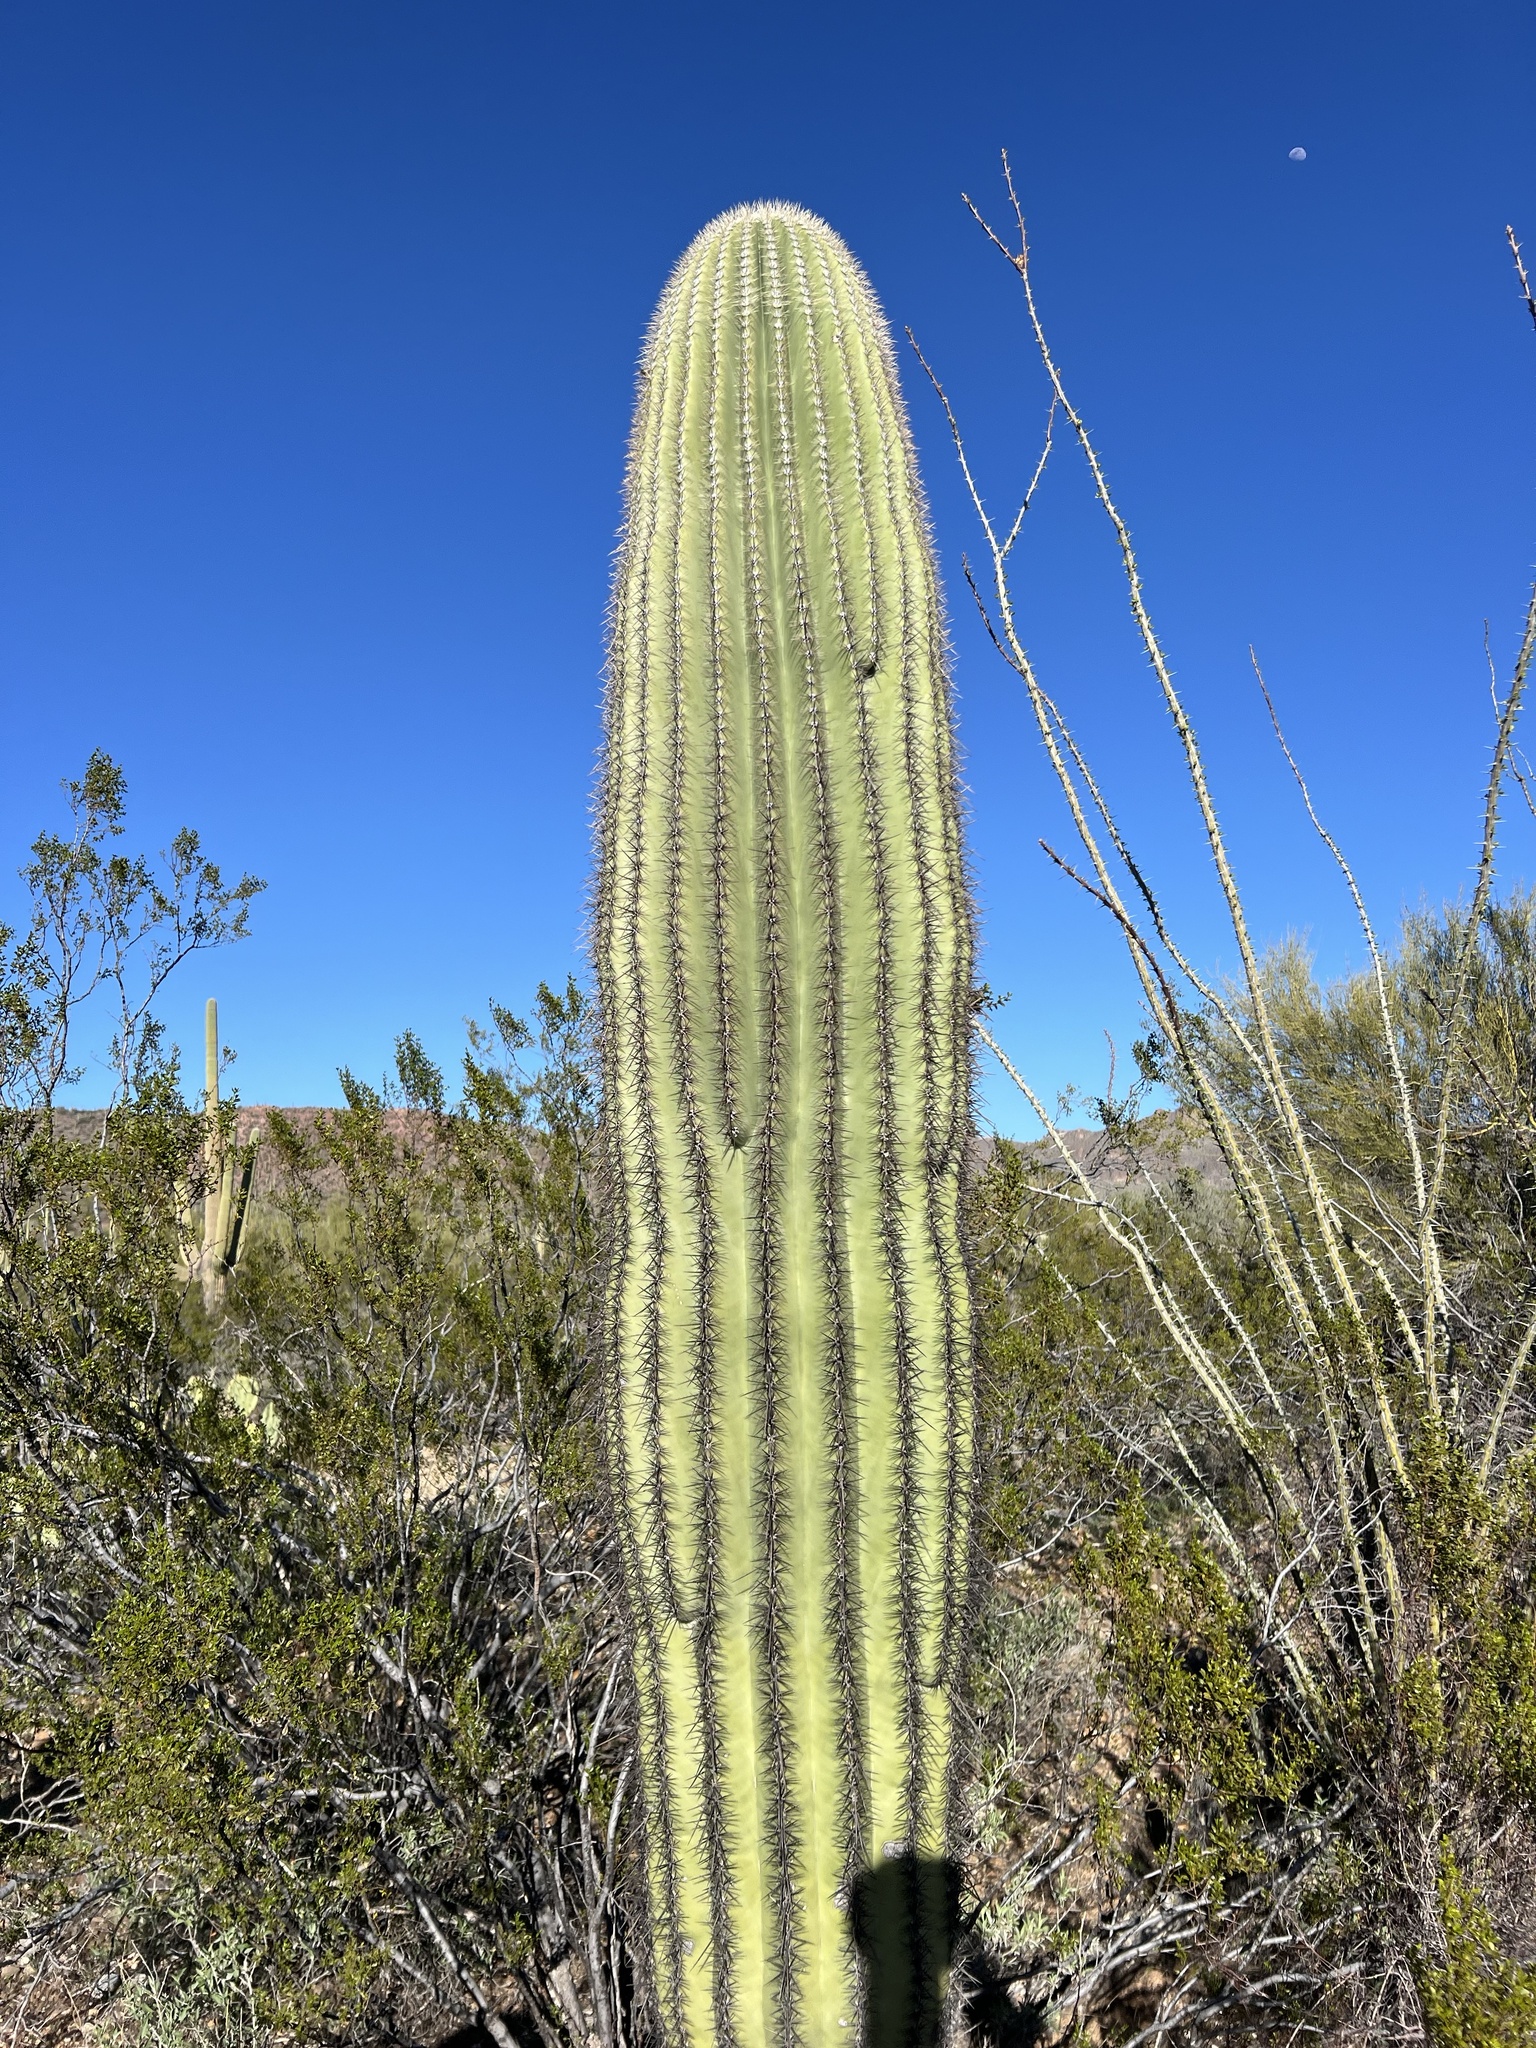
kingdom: Plantae
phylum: Tracheophyta
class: Magnoliopsida
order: Caryophyllales
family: Cactaceae
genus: Carnegiea
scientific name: Carnegiea gigantea
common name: Saguaro
